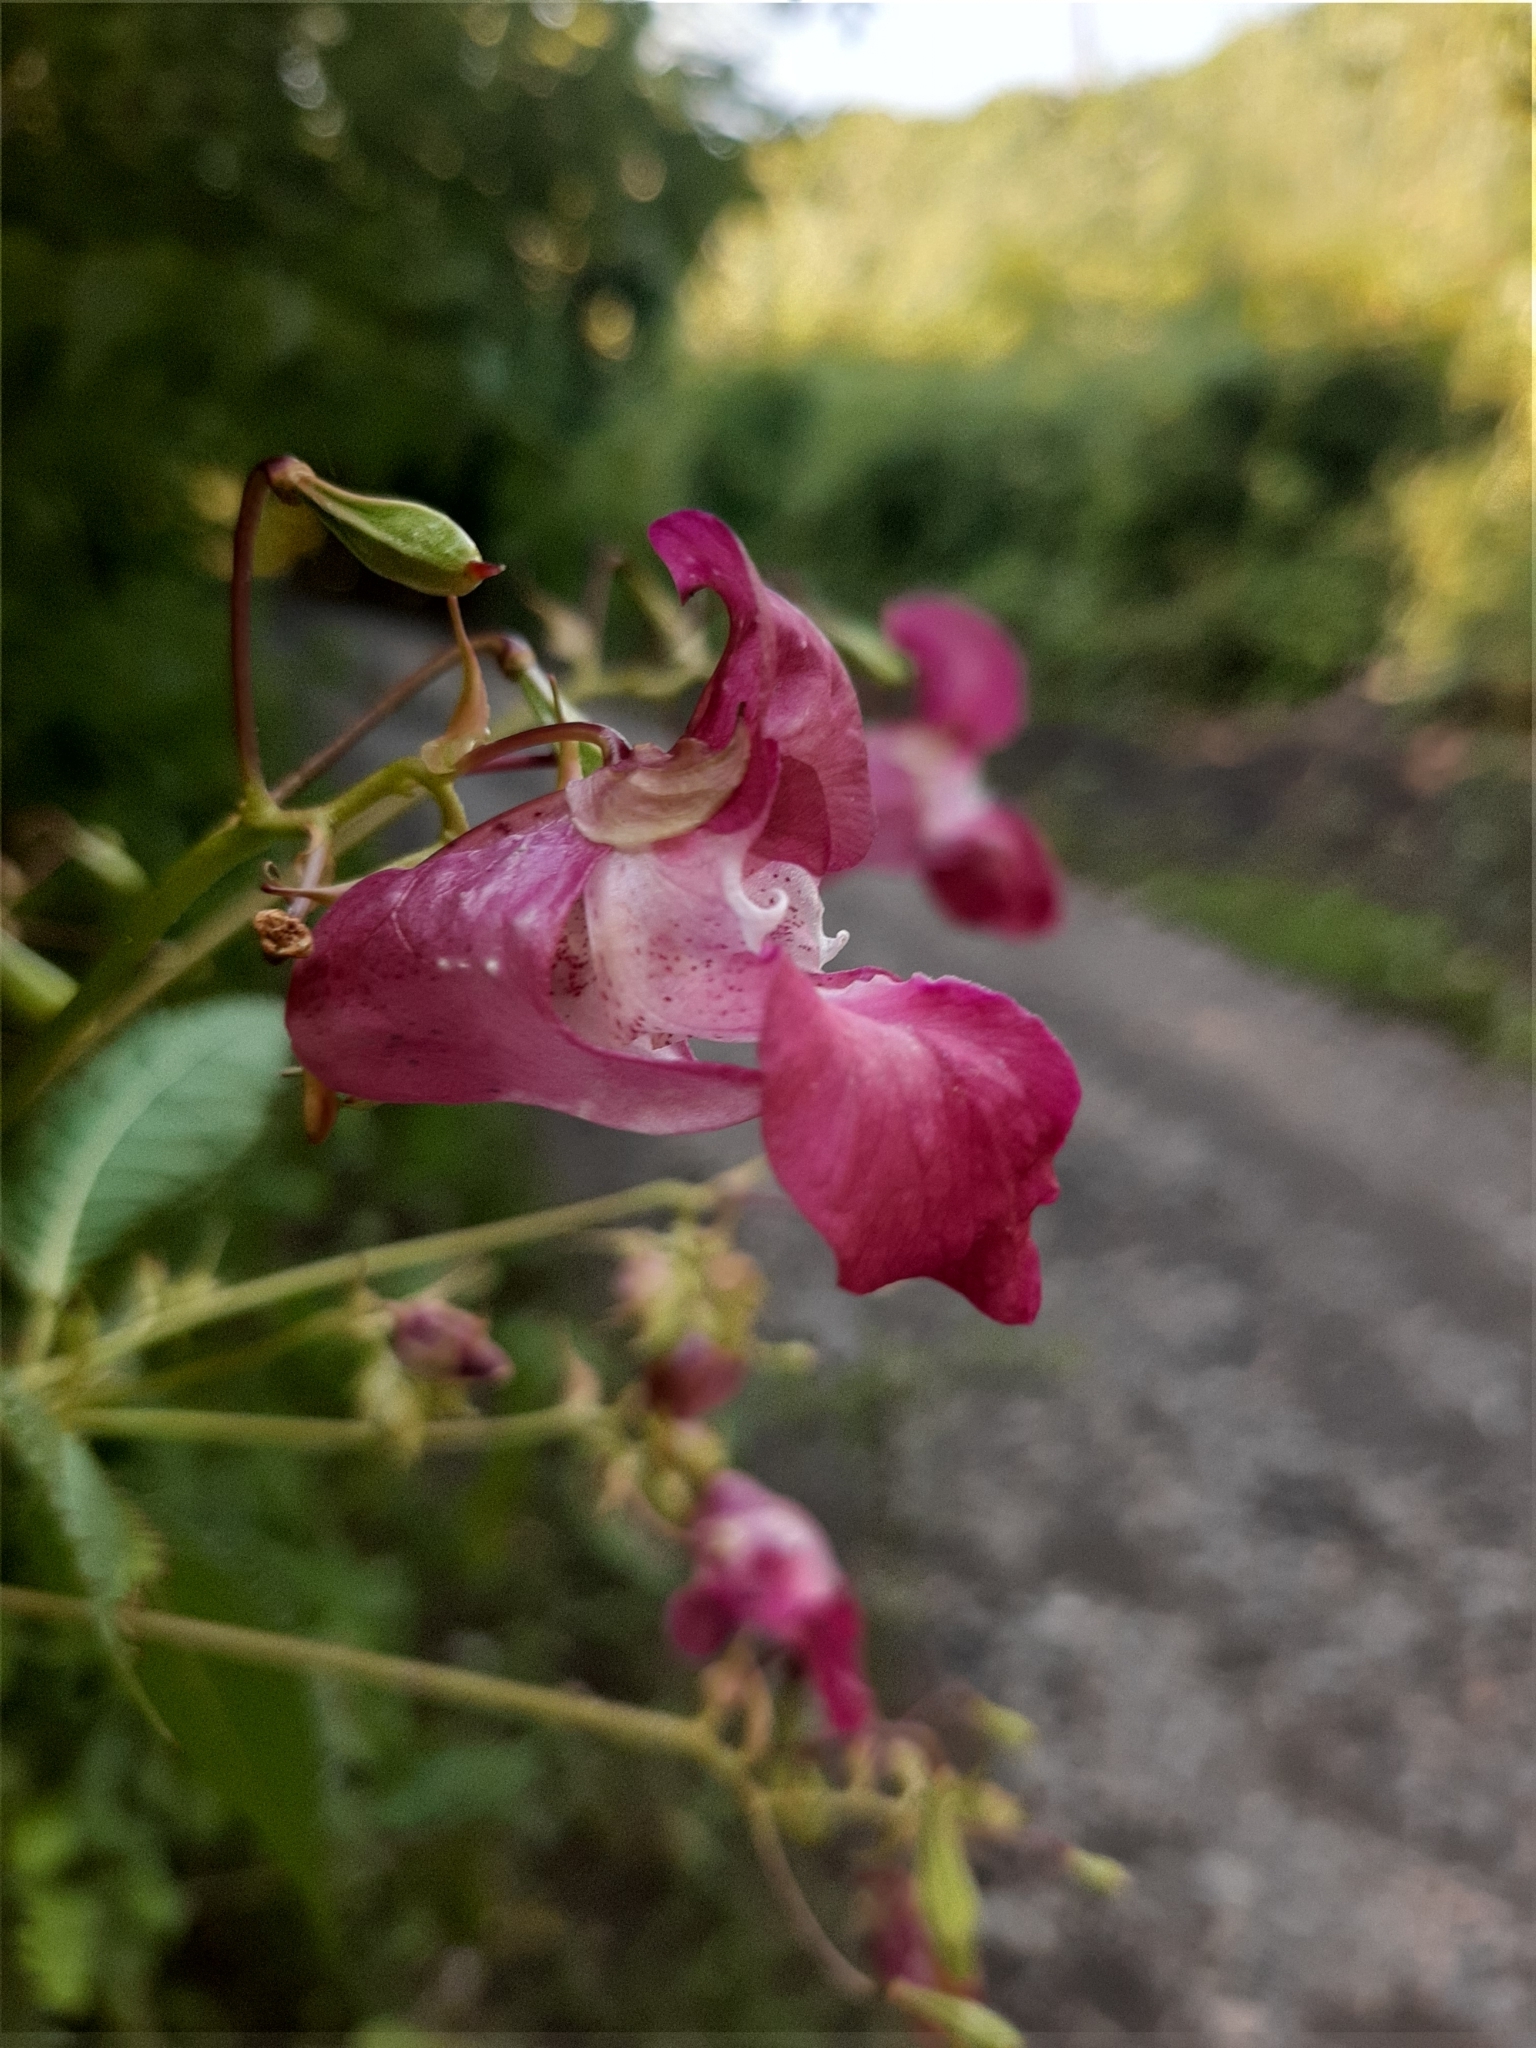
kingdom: Plantae
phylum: Tracheophyta
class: Magnoliopsida
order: Ericales
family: Balsaminaceae
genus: Impatiens
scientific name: Impatiens glandulifera
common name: Himalayan balsam
